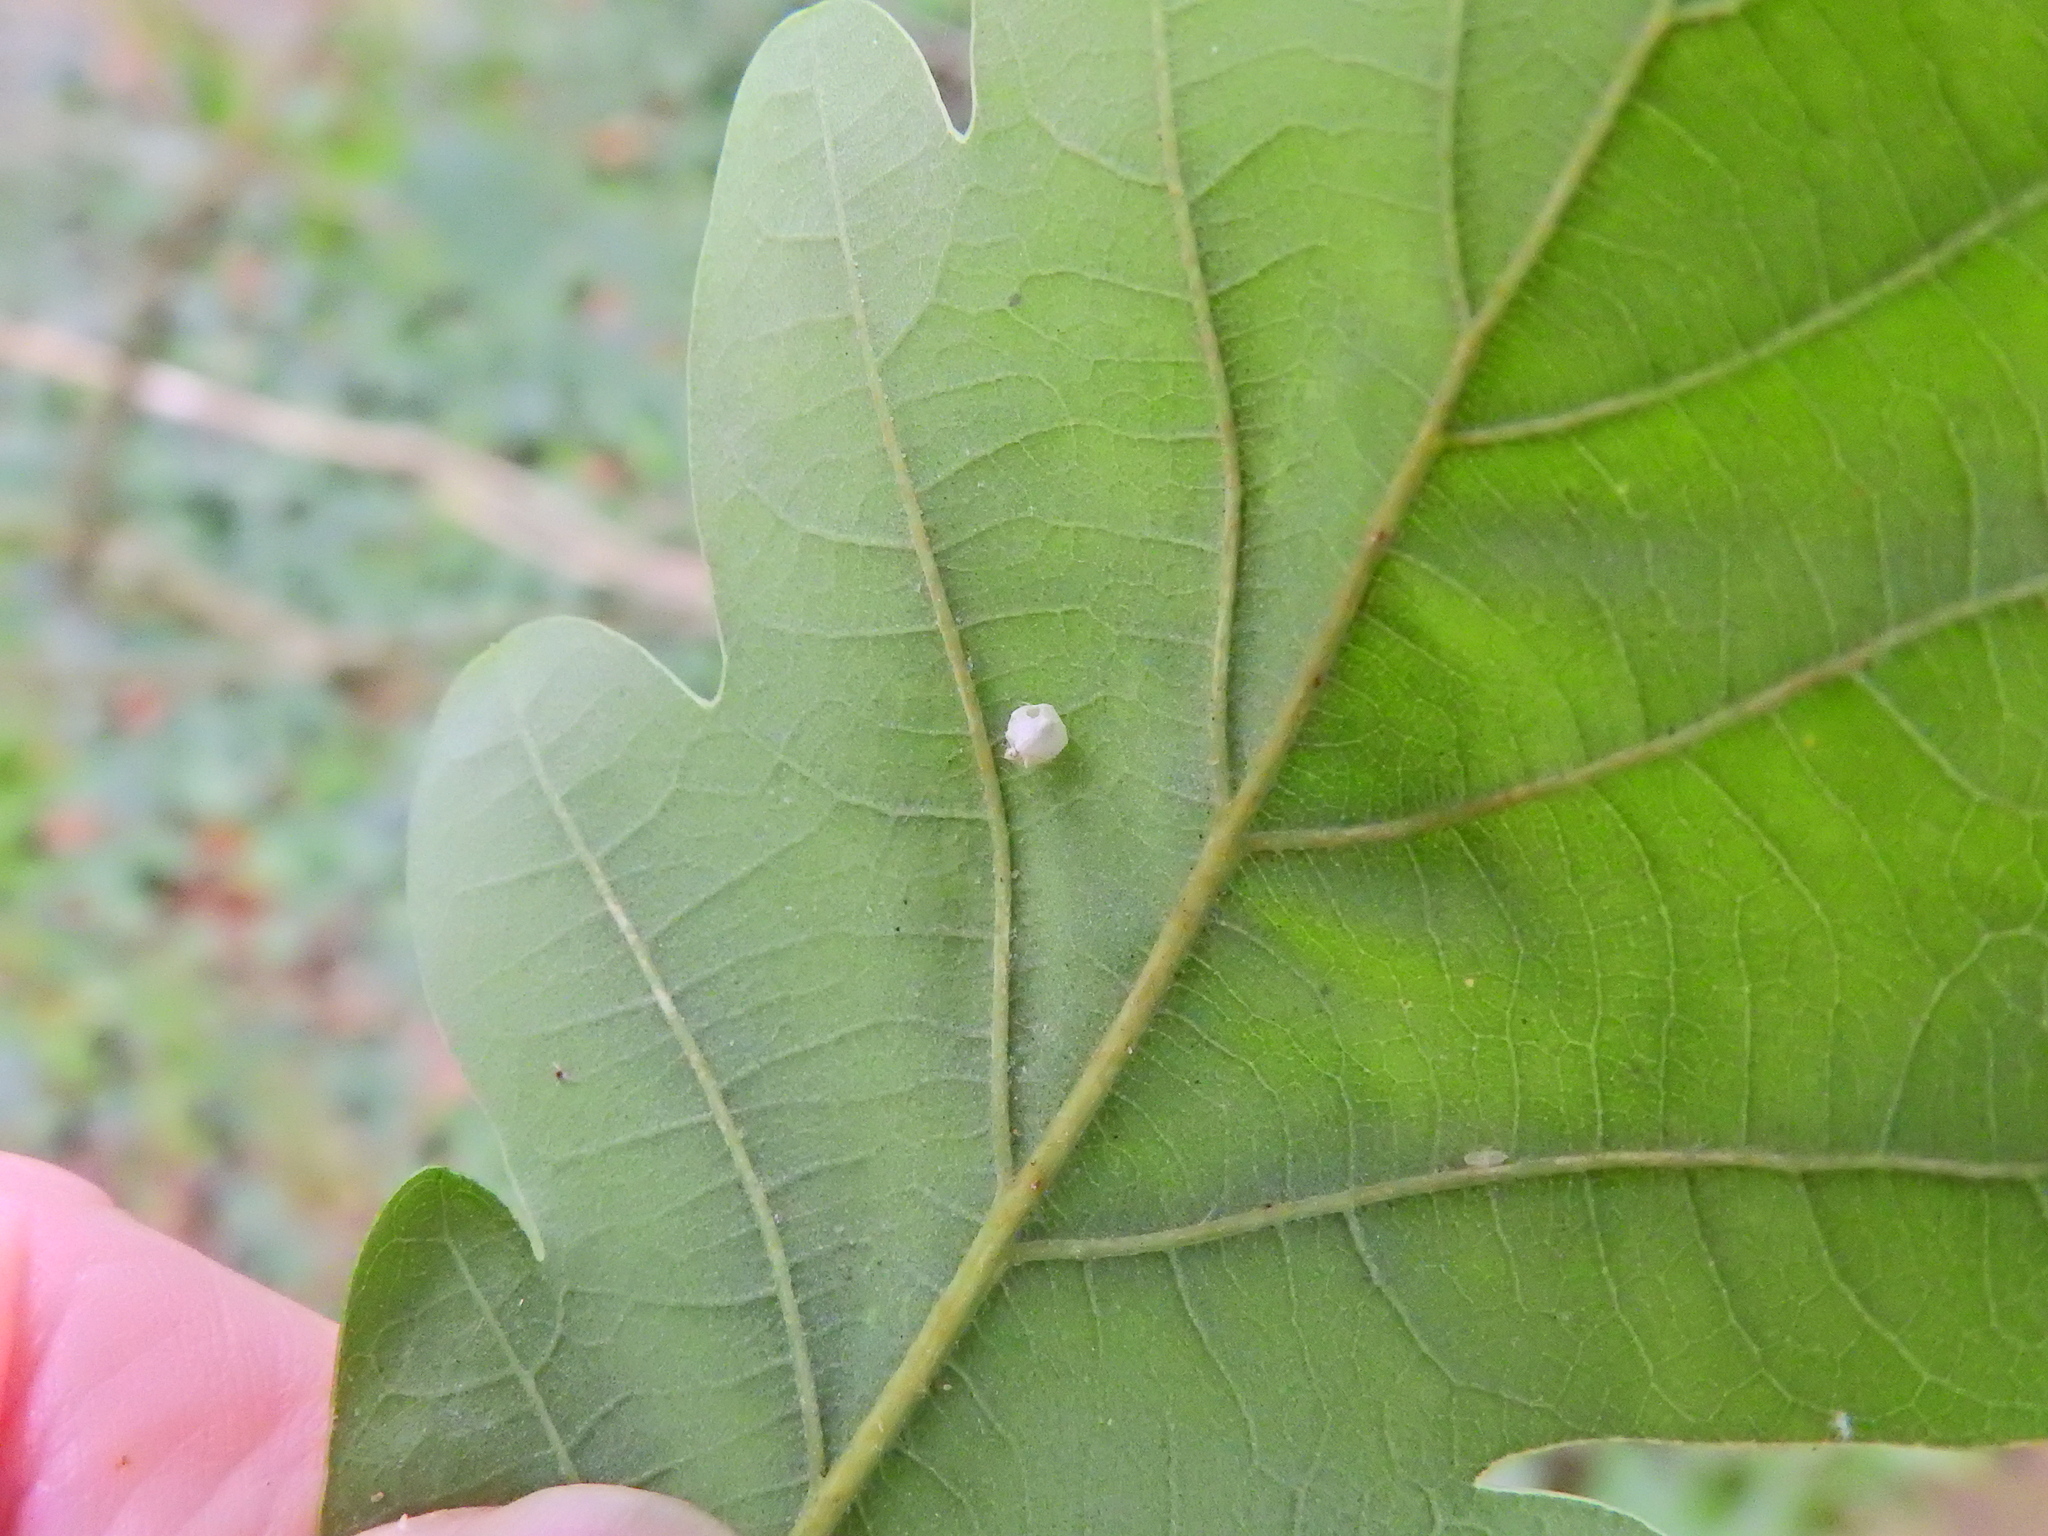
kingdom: Animalia
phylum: Arthropoda
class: Arachnida
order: Araneae
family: Theridiidae
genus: Paidiscura
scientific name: Paidiscura pallens
